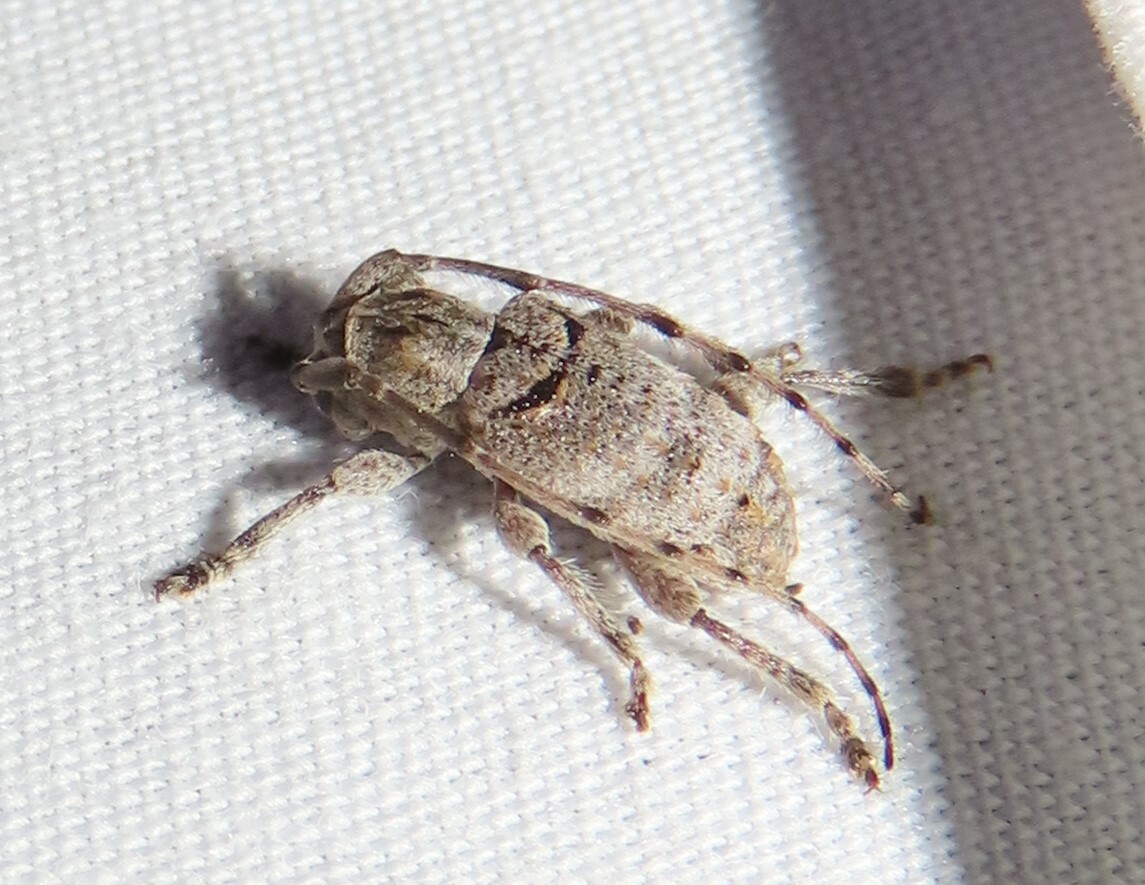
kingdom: Animalia
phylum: Arthropoda
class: Insecta
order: Coleoptera
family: Cerambycidae
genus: Ecyrus
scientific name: Ecyrus dasycerus
